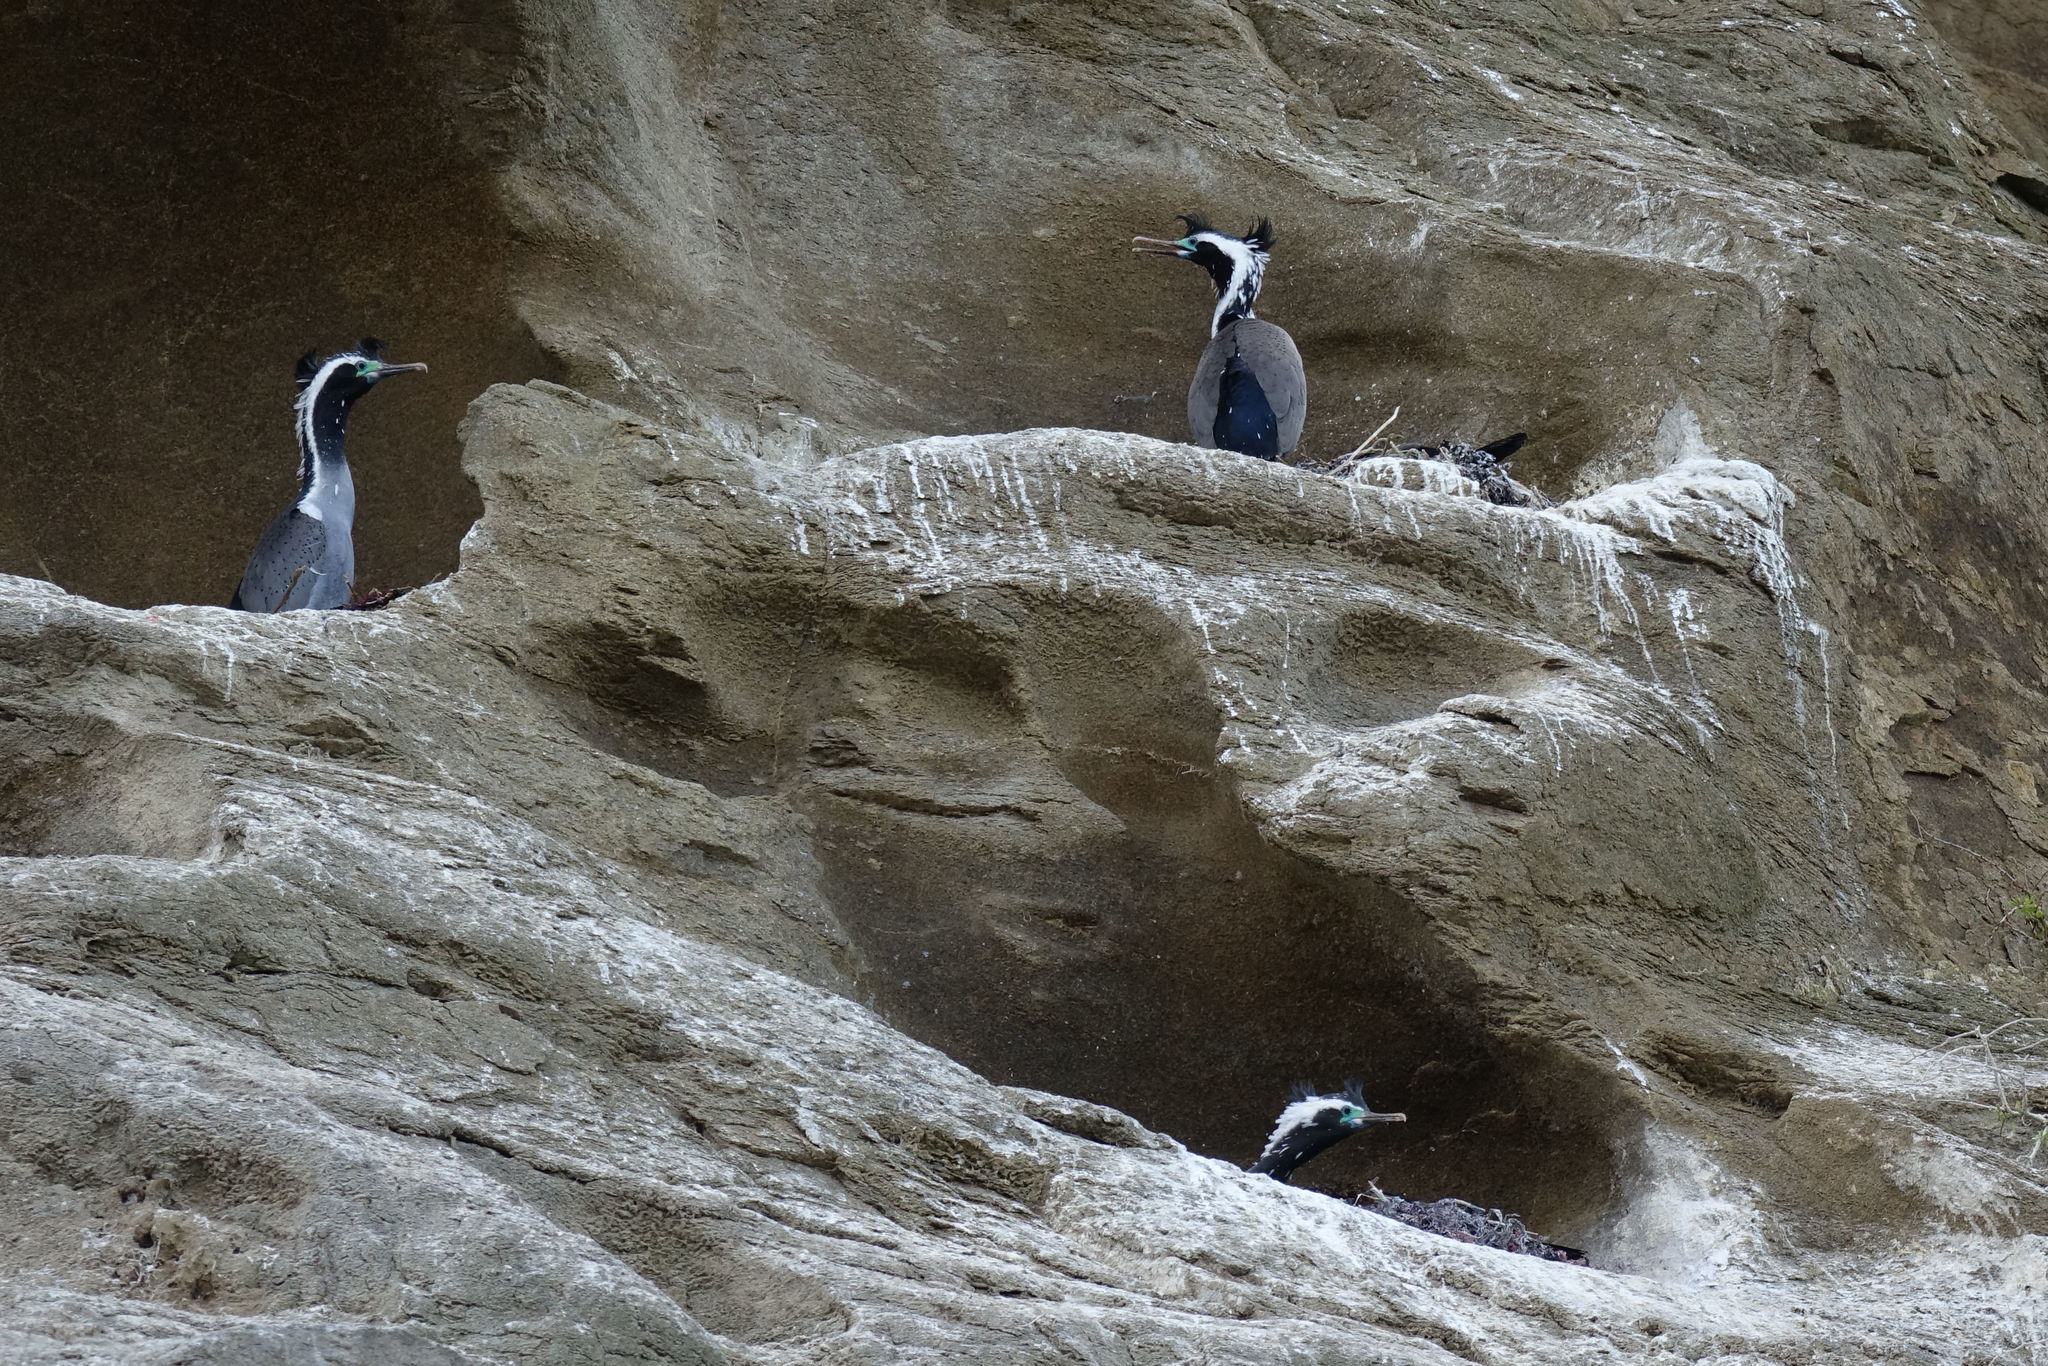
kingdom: Animalia
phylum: Chordata
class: Aves
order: Suliformes
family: Phalacrocoracidae
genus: Phalacrocorax
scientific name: Phalacrocorax punctatus
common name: Spotted shag
